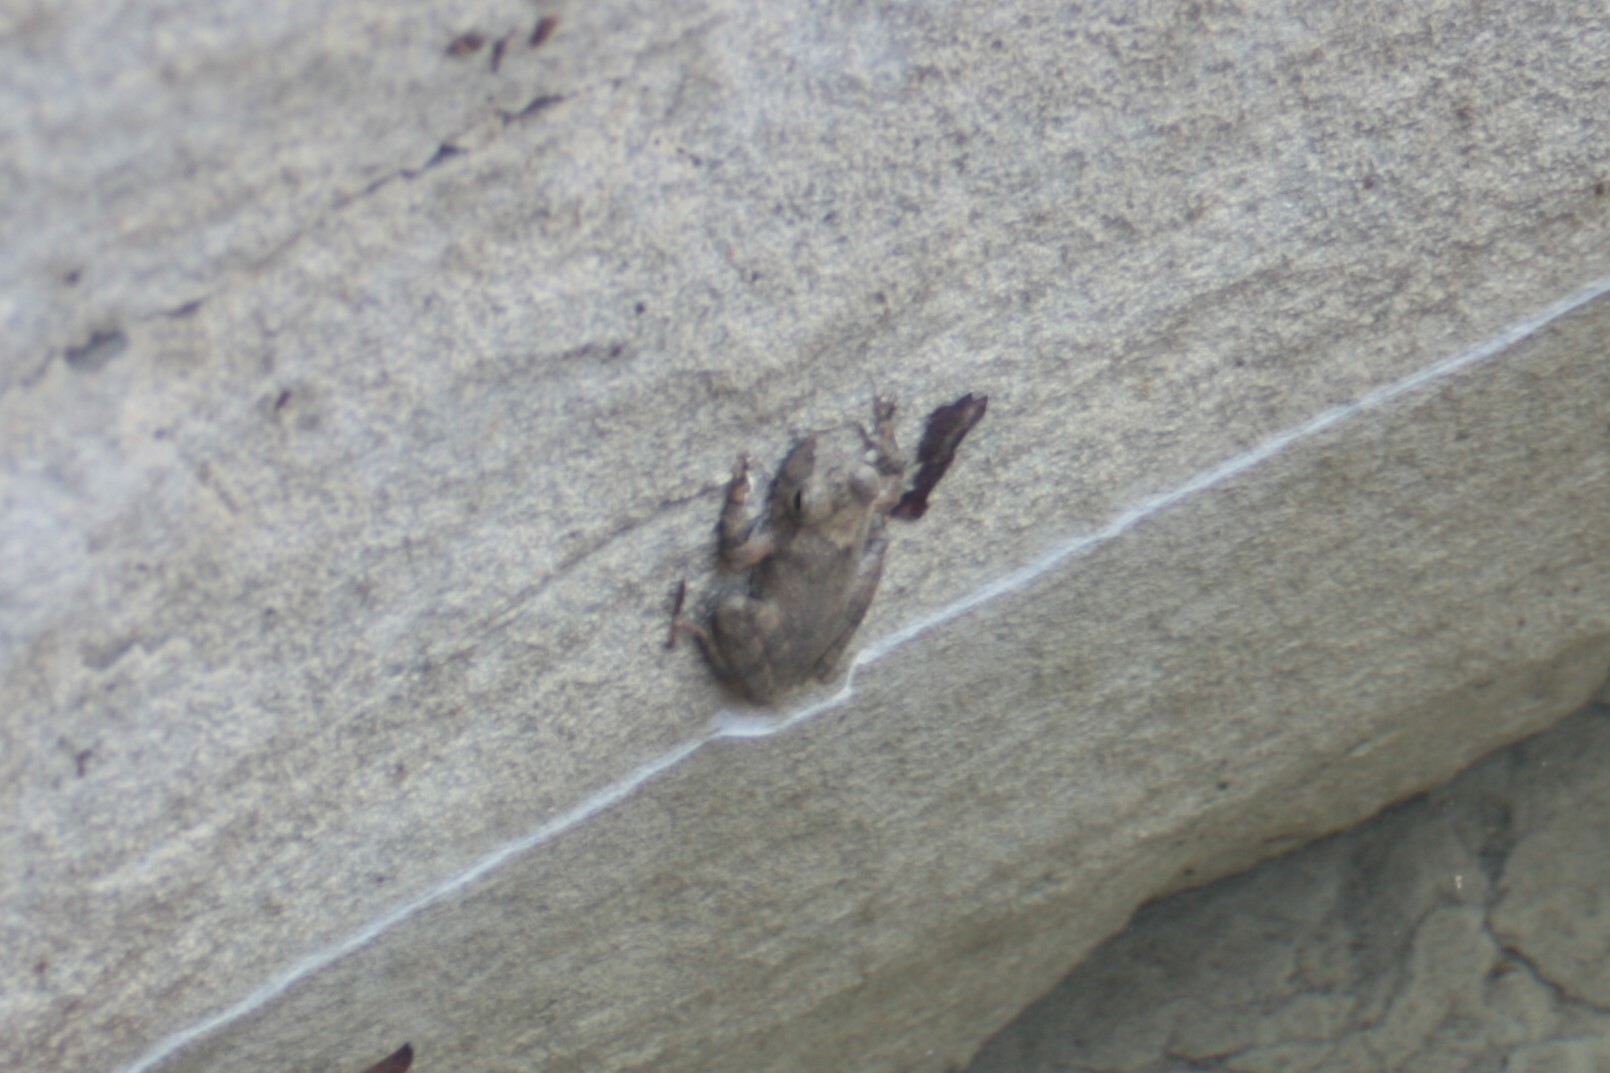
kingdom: Animalia
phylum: Chordata
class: Amphibia
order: Anura
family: Rhacophoridae
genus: Buergeria
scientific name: Buergeria otai
